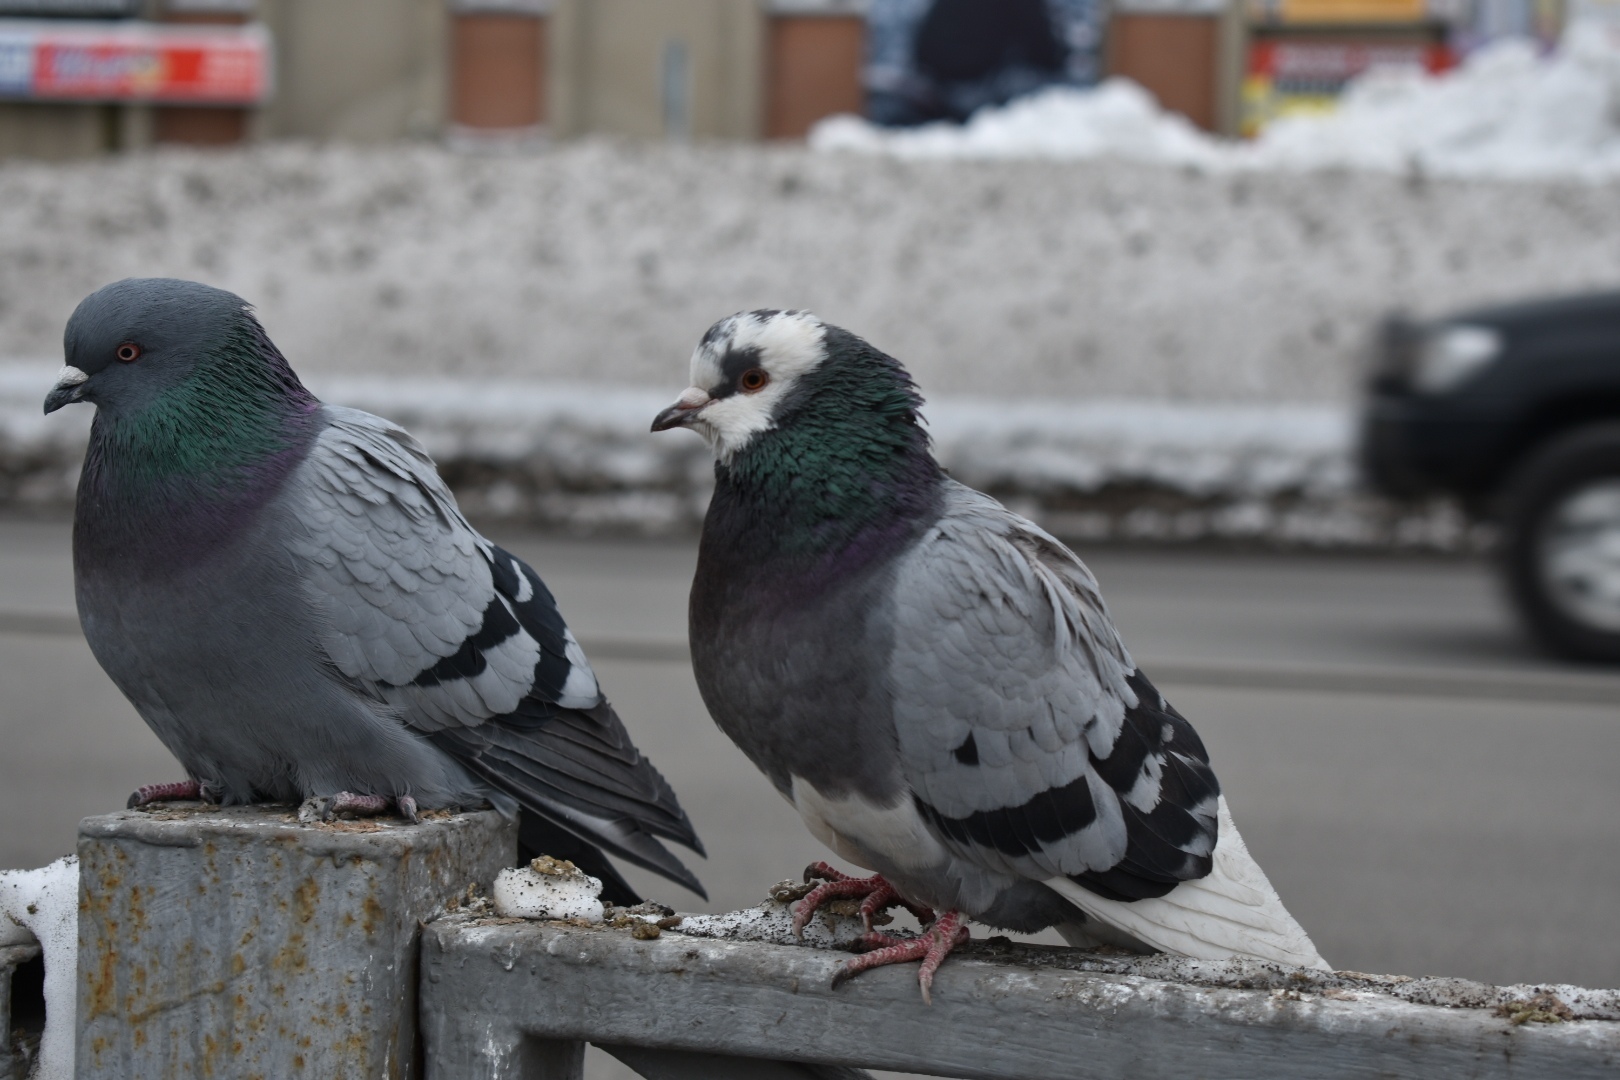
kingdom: Animalia
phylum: Chordata
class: Aves
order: Columbiformes
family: Columbidae
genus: Columba
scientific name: Columba livia
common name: Rock pigeon
